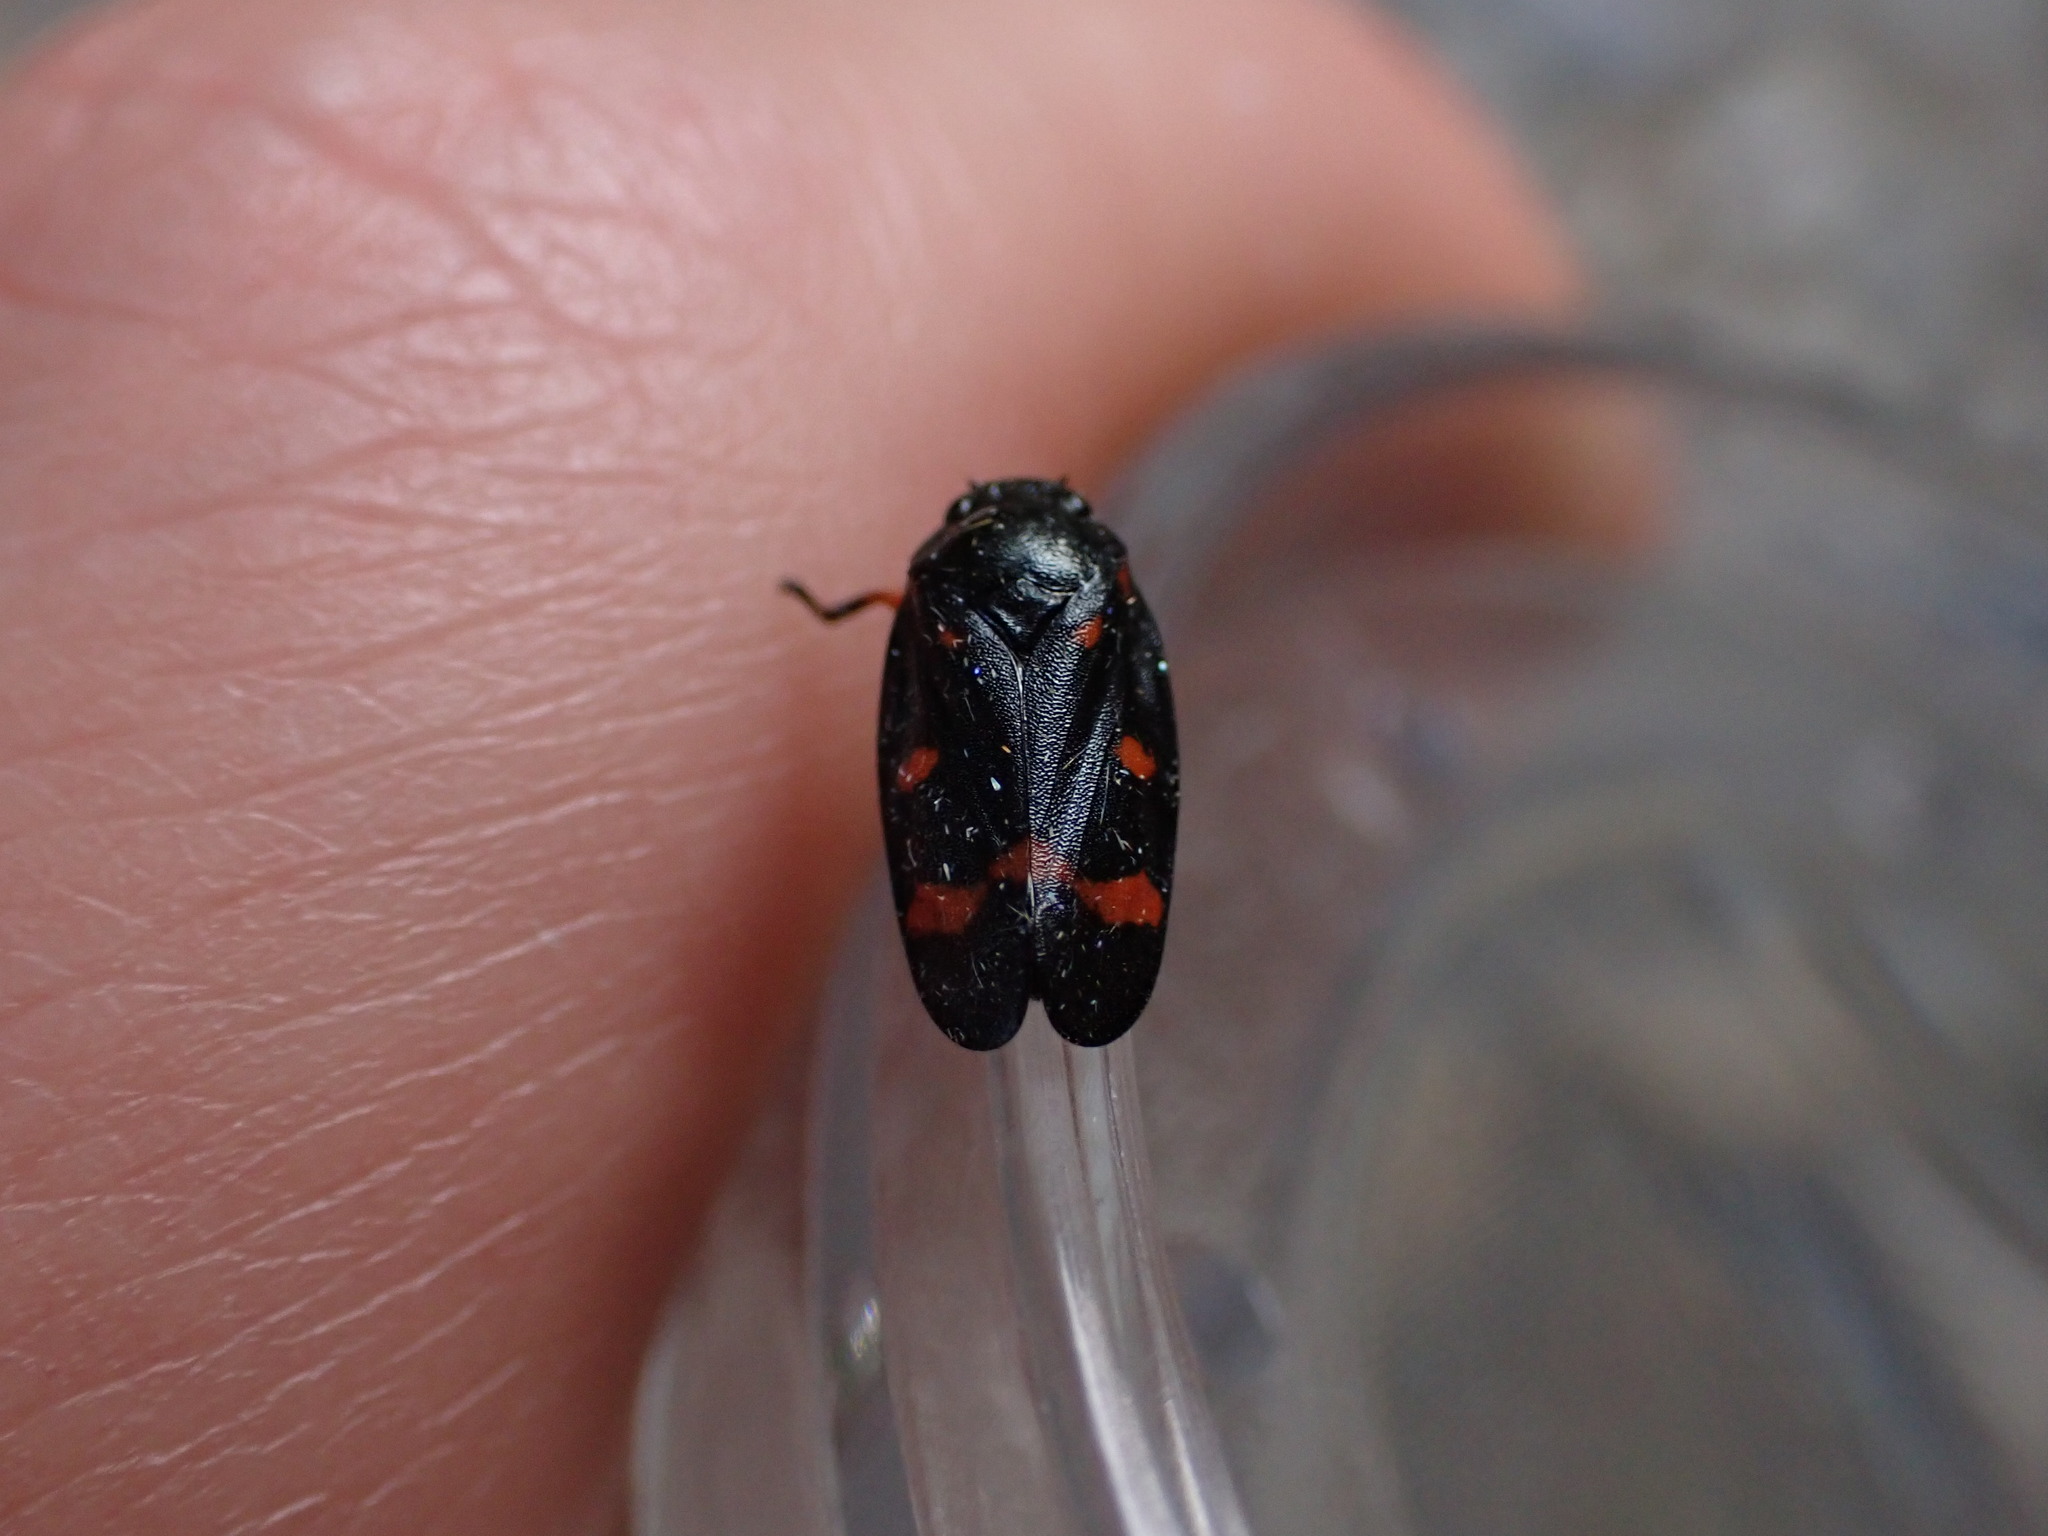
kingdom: Animalia
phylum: Arthropoda
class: Insecta
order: Hemiptera
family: Cercopidae
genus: Cercopis
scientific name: Cercopis intermedia
